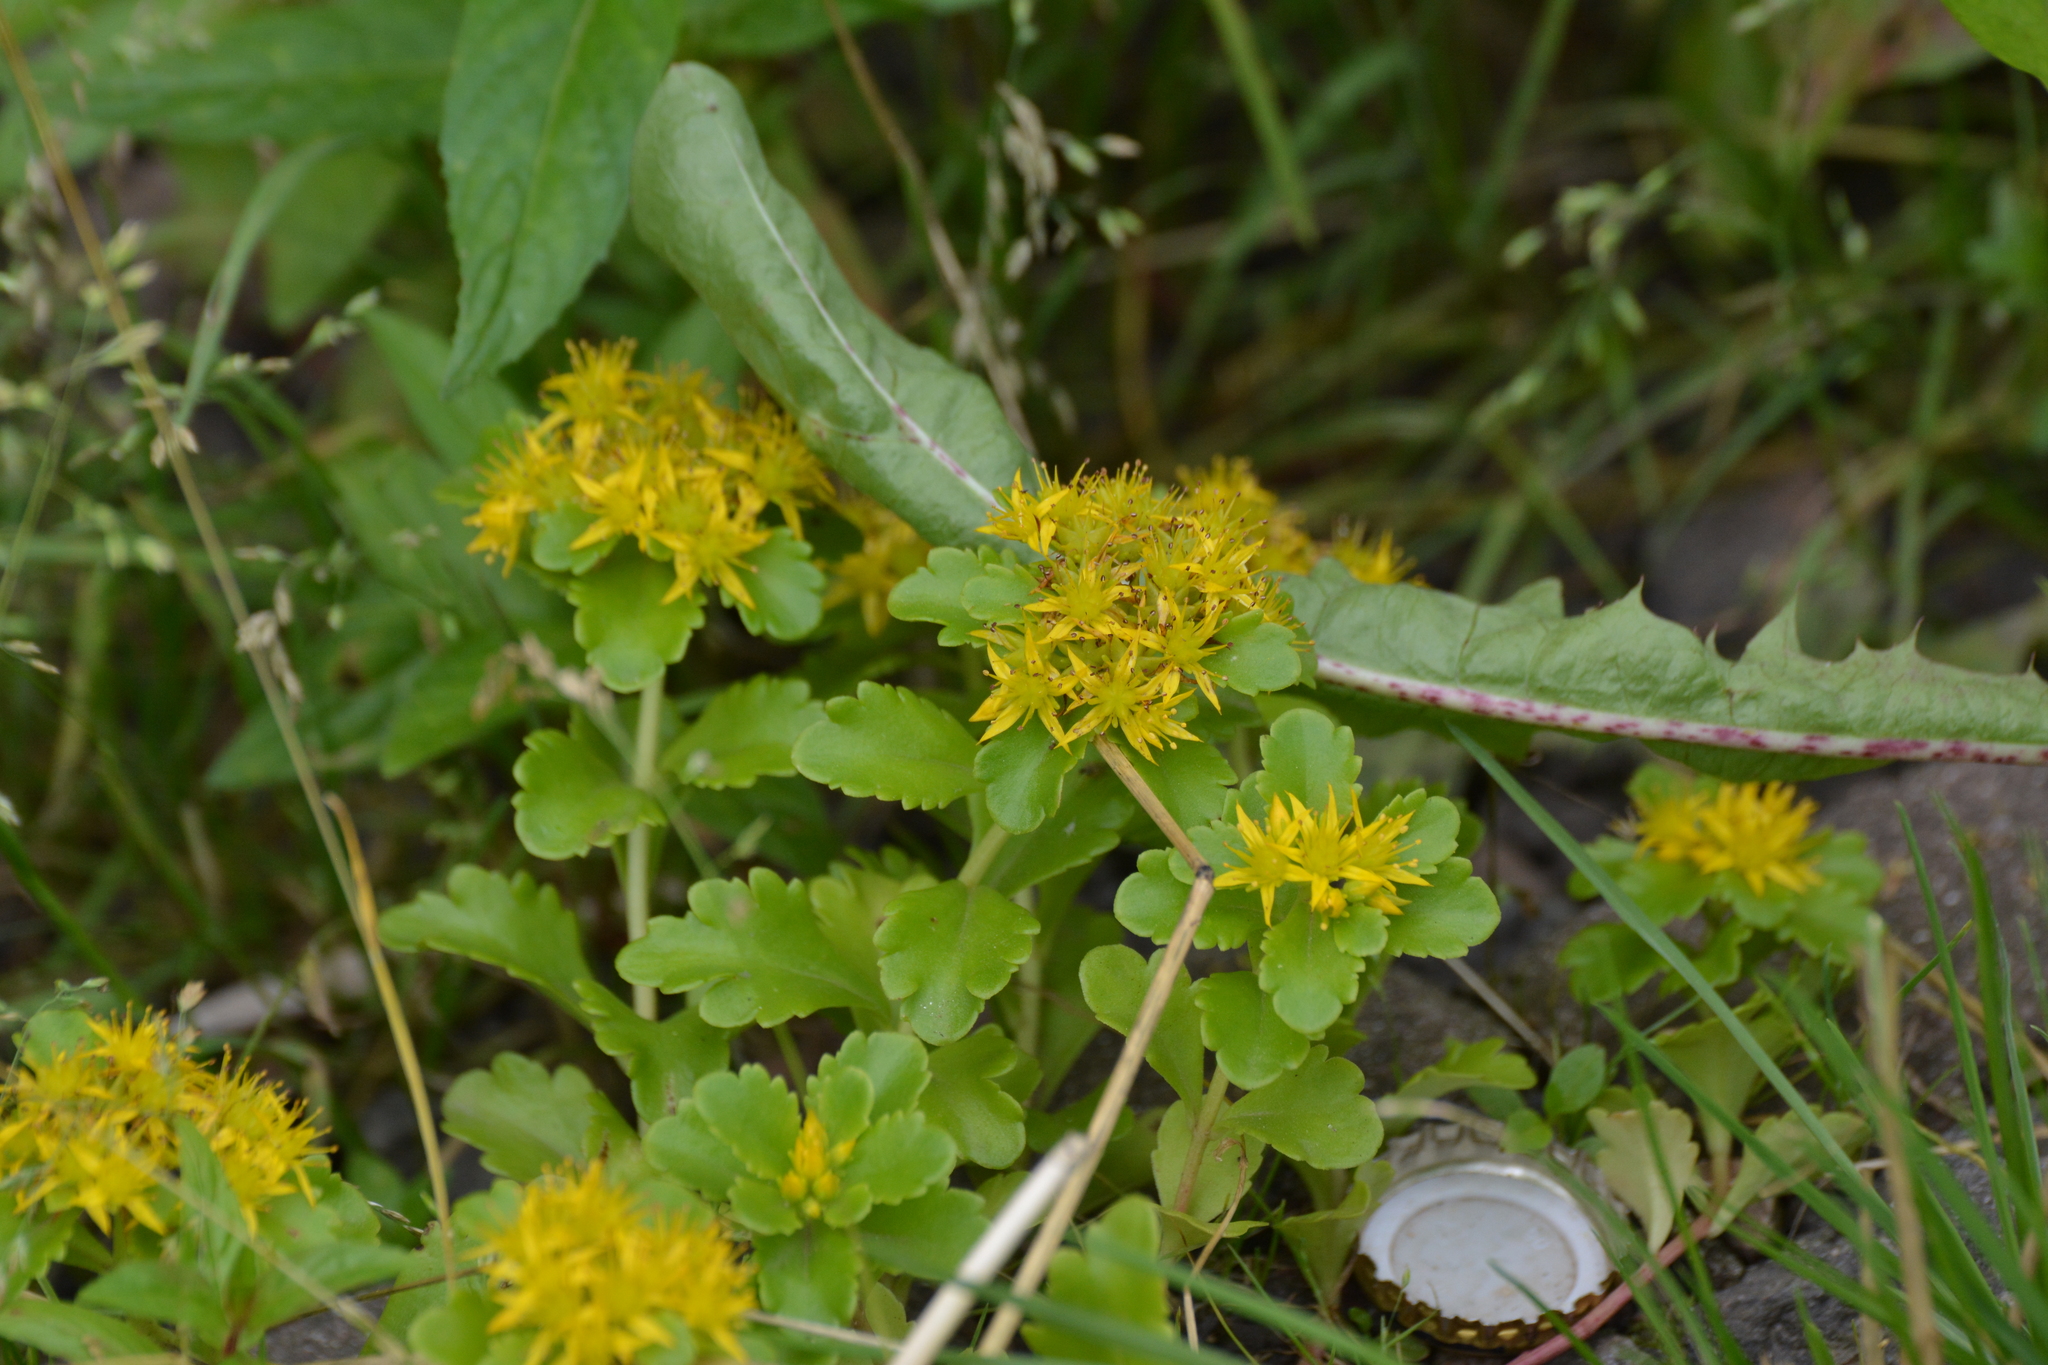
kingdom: Plantae
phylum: Tracheophyta
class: Magnoliopsida
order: Saxifragales
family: Crassulaceae
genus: Phedimus
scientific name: Phedimus hybridus
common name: Hybrid stonecrop
